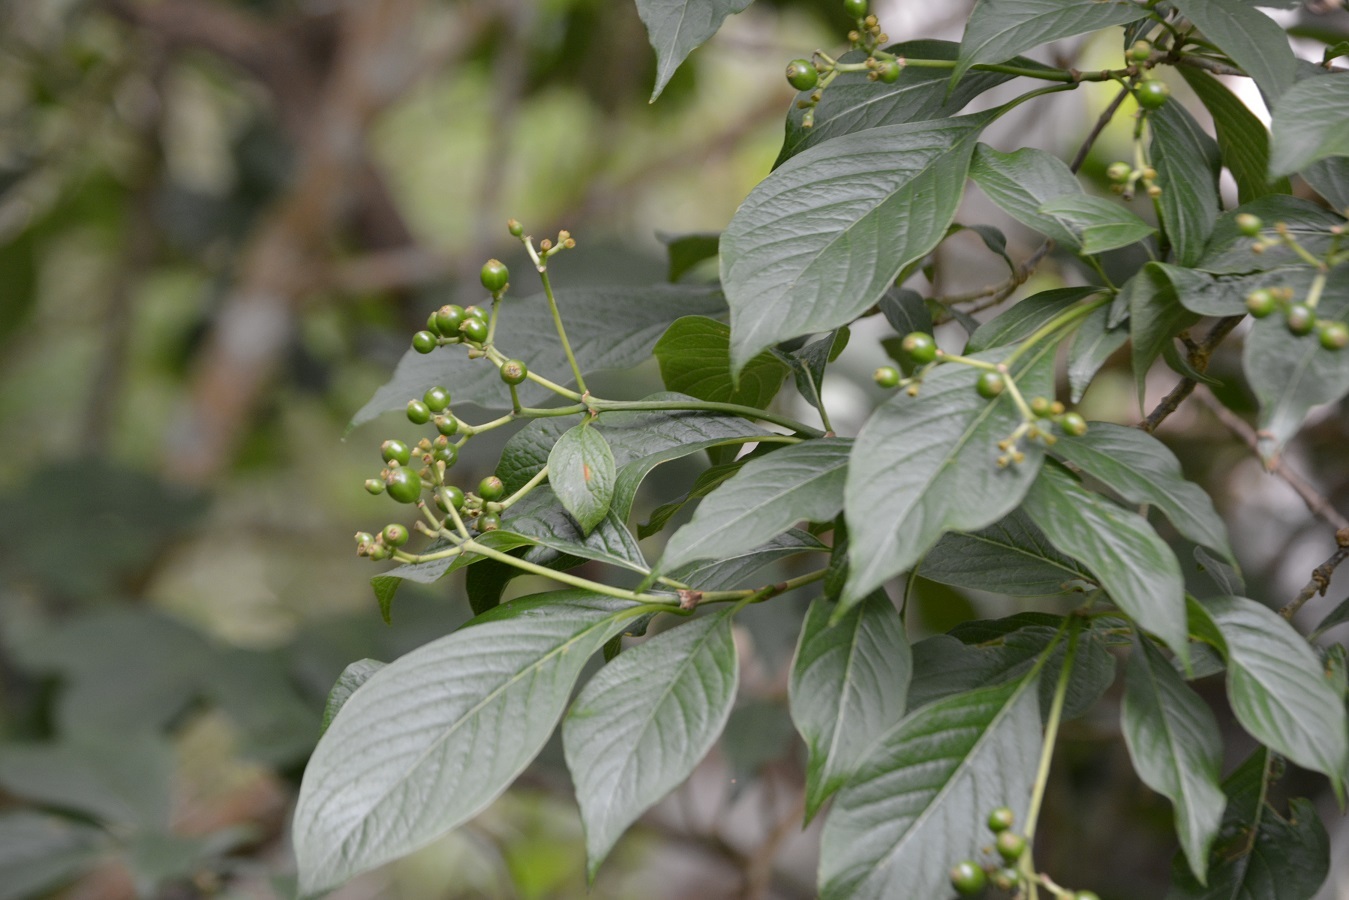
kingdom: Plantae
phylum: Tracheophyta
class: Magnoliopsida
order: Gentianales
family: Rubiaceae
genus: Coussarea
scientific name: Coussarea chiapensis
